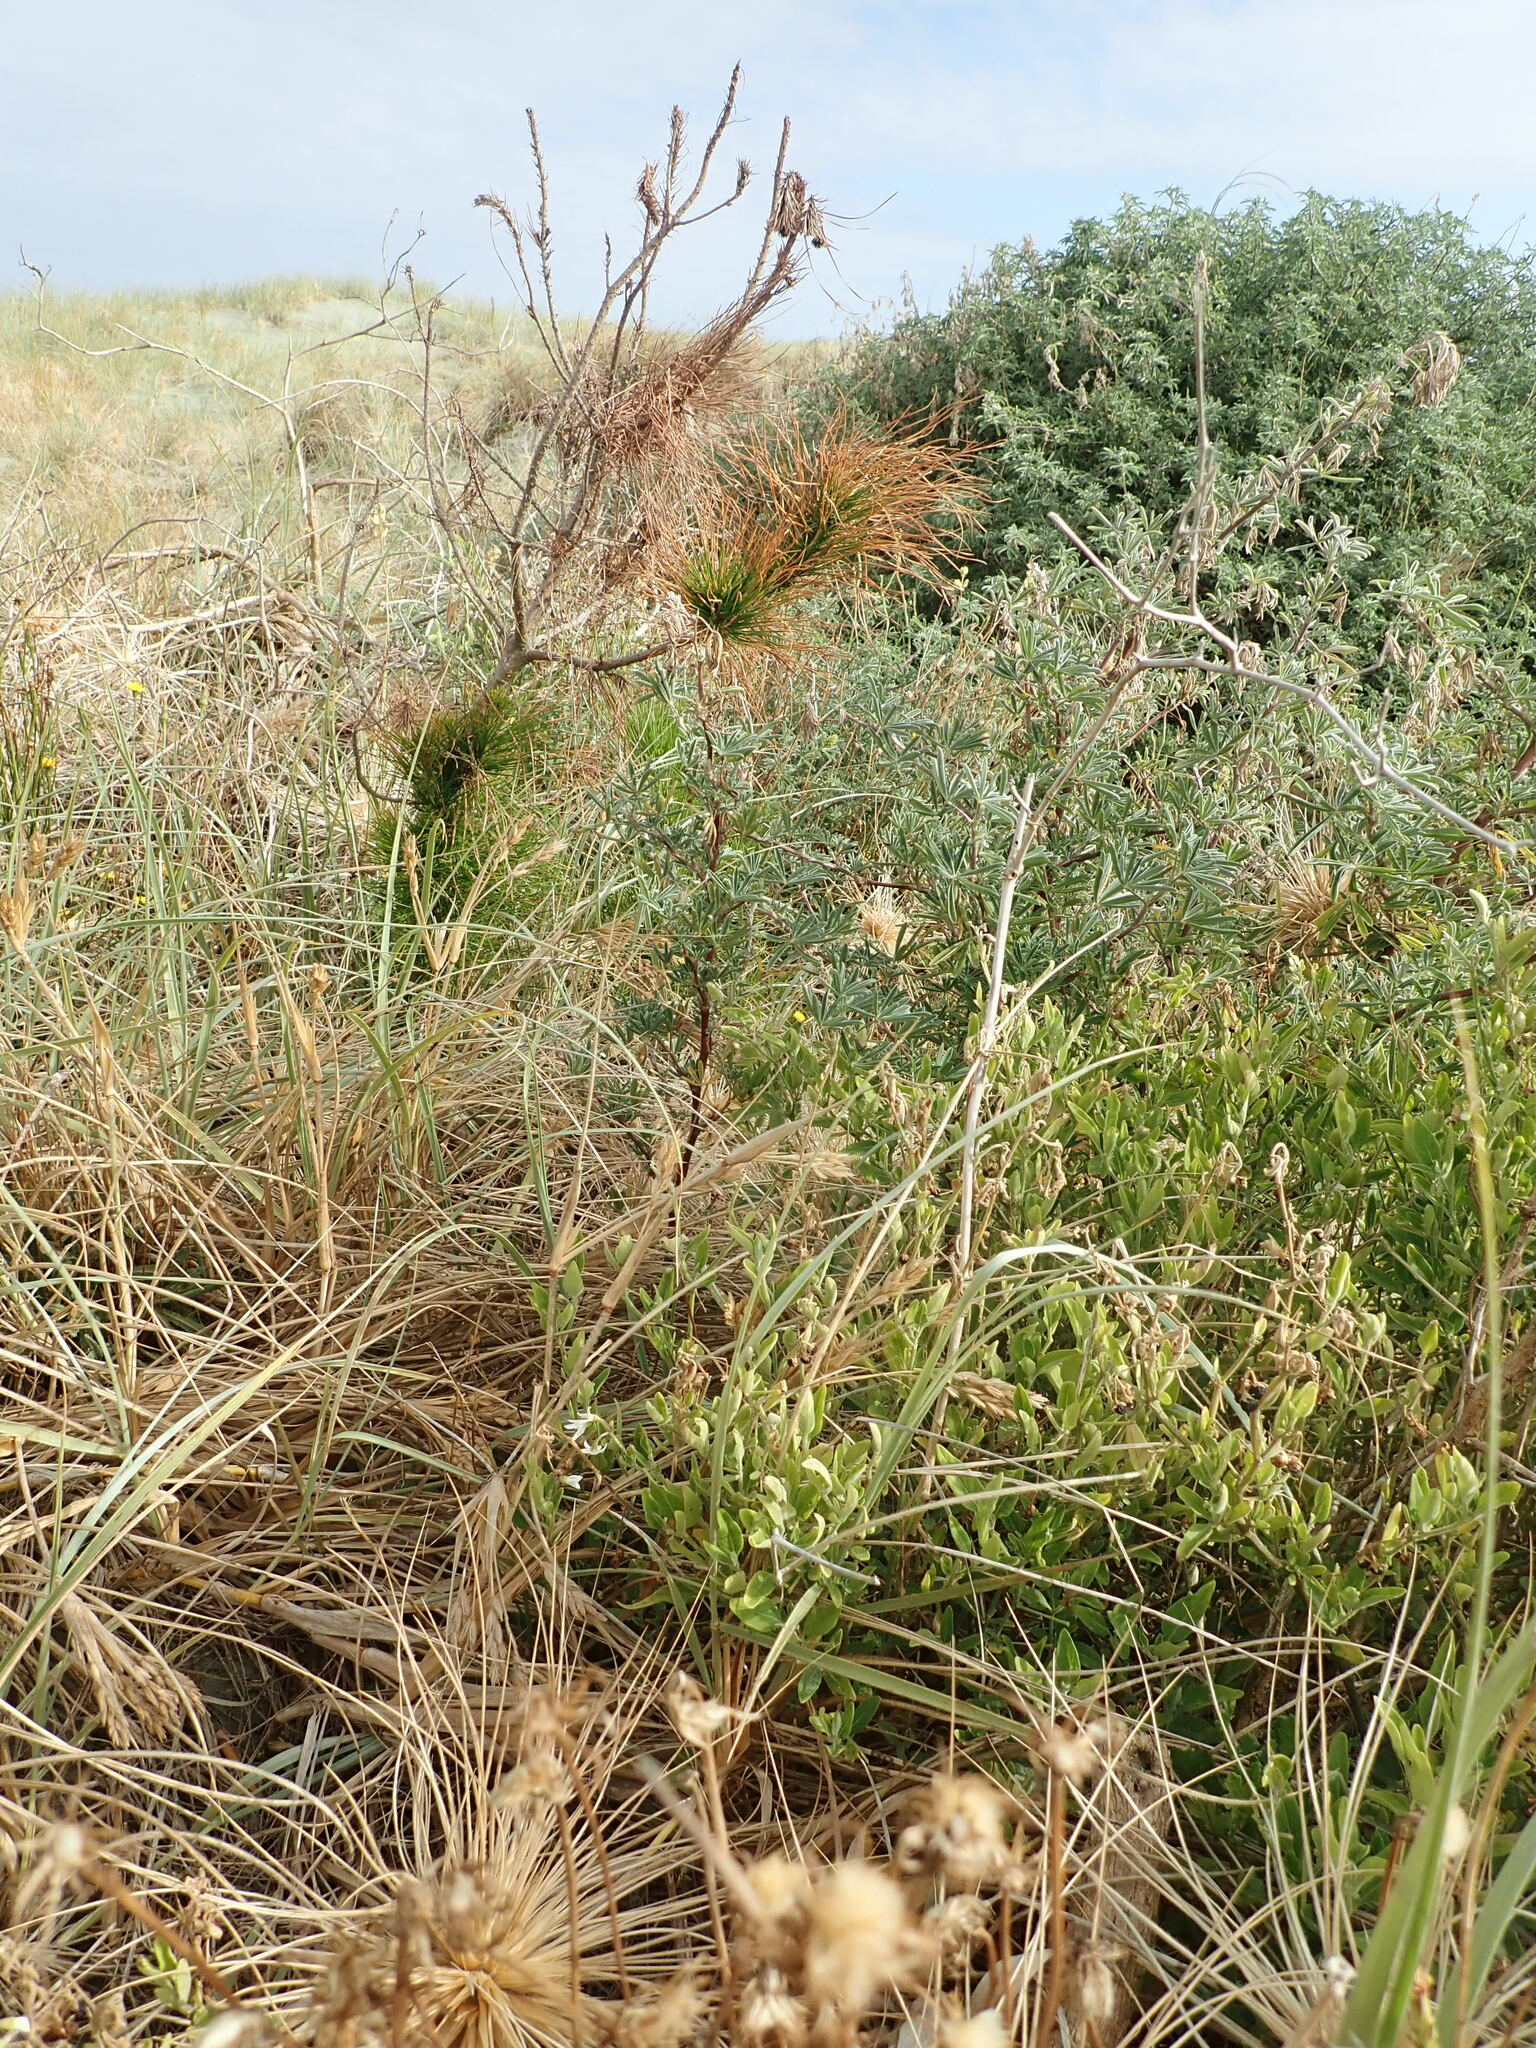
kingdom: Plantae
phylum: Tracheophyta
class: Magnoliopsida
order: Solanales
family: Solanaceae
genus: Solanum
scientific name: Solanum chenopodioides
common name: Tall nightshade
